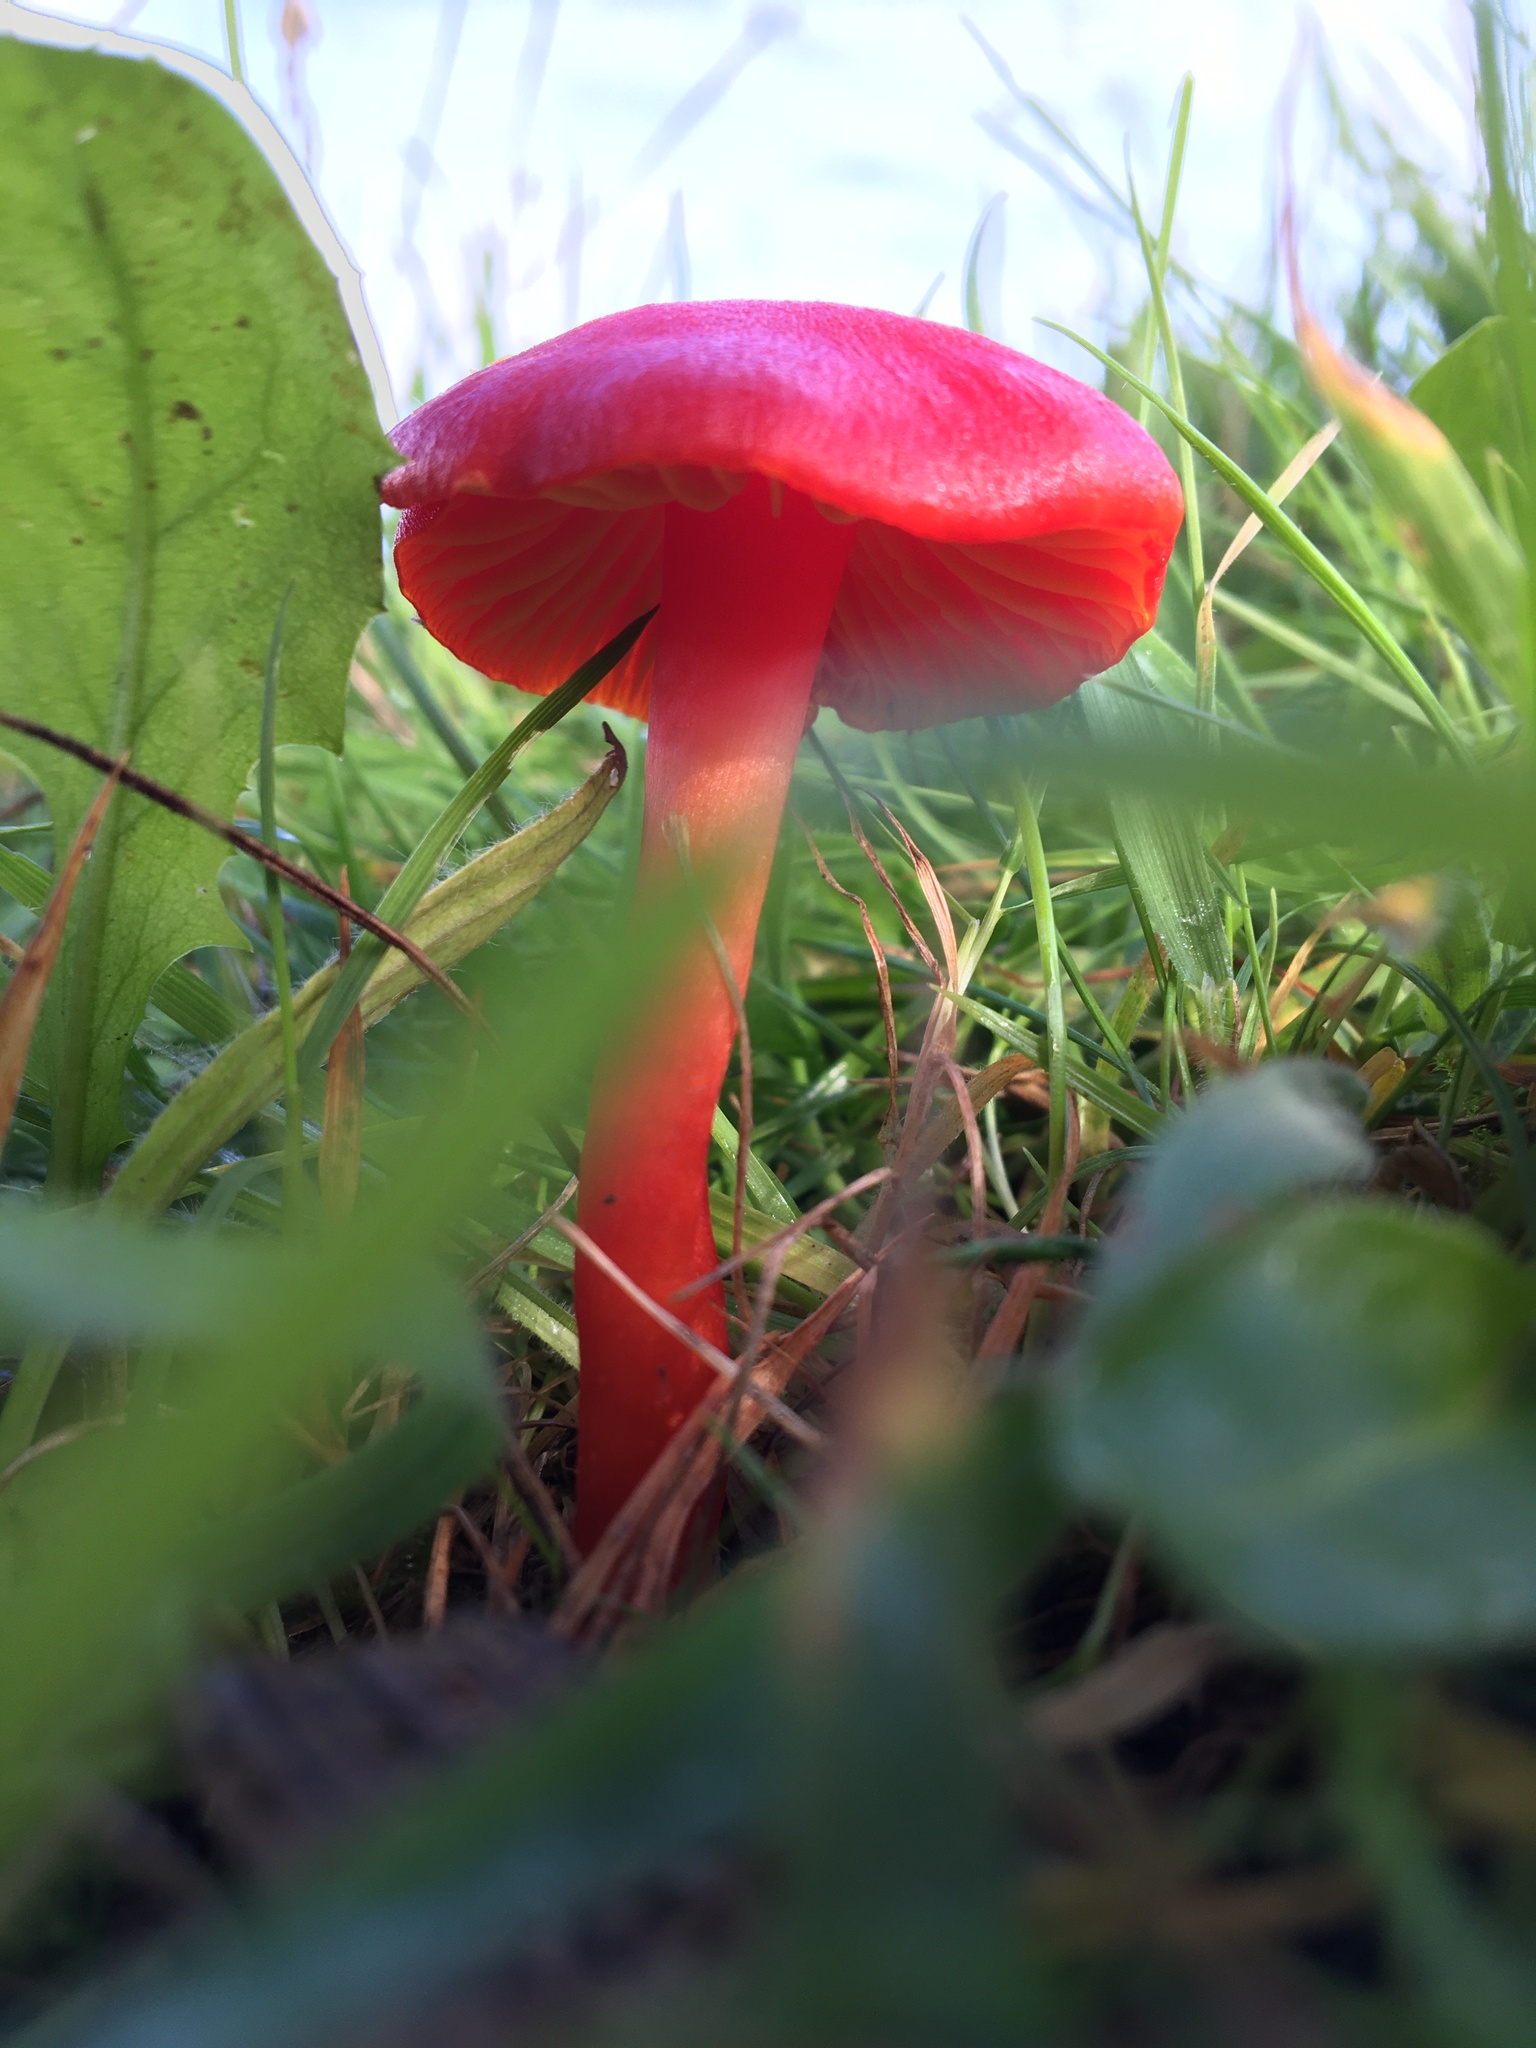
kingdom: Fungi
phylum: Basidiomycota
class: Agaricomycetes
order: Agaricales
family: Hygrophoraceae
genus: Hygrocybe
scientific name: Hygrocybe coccinea
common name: Scarlet hood
